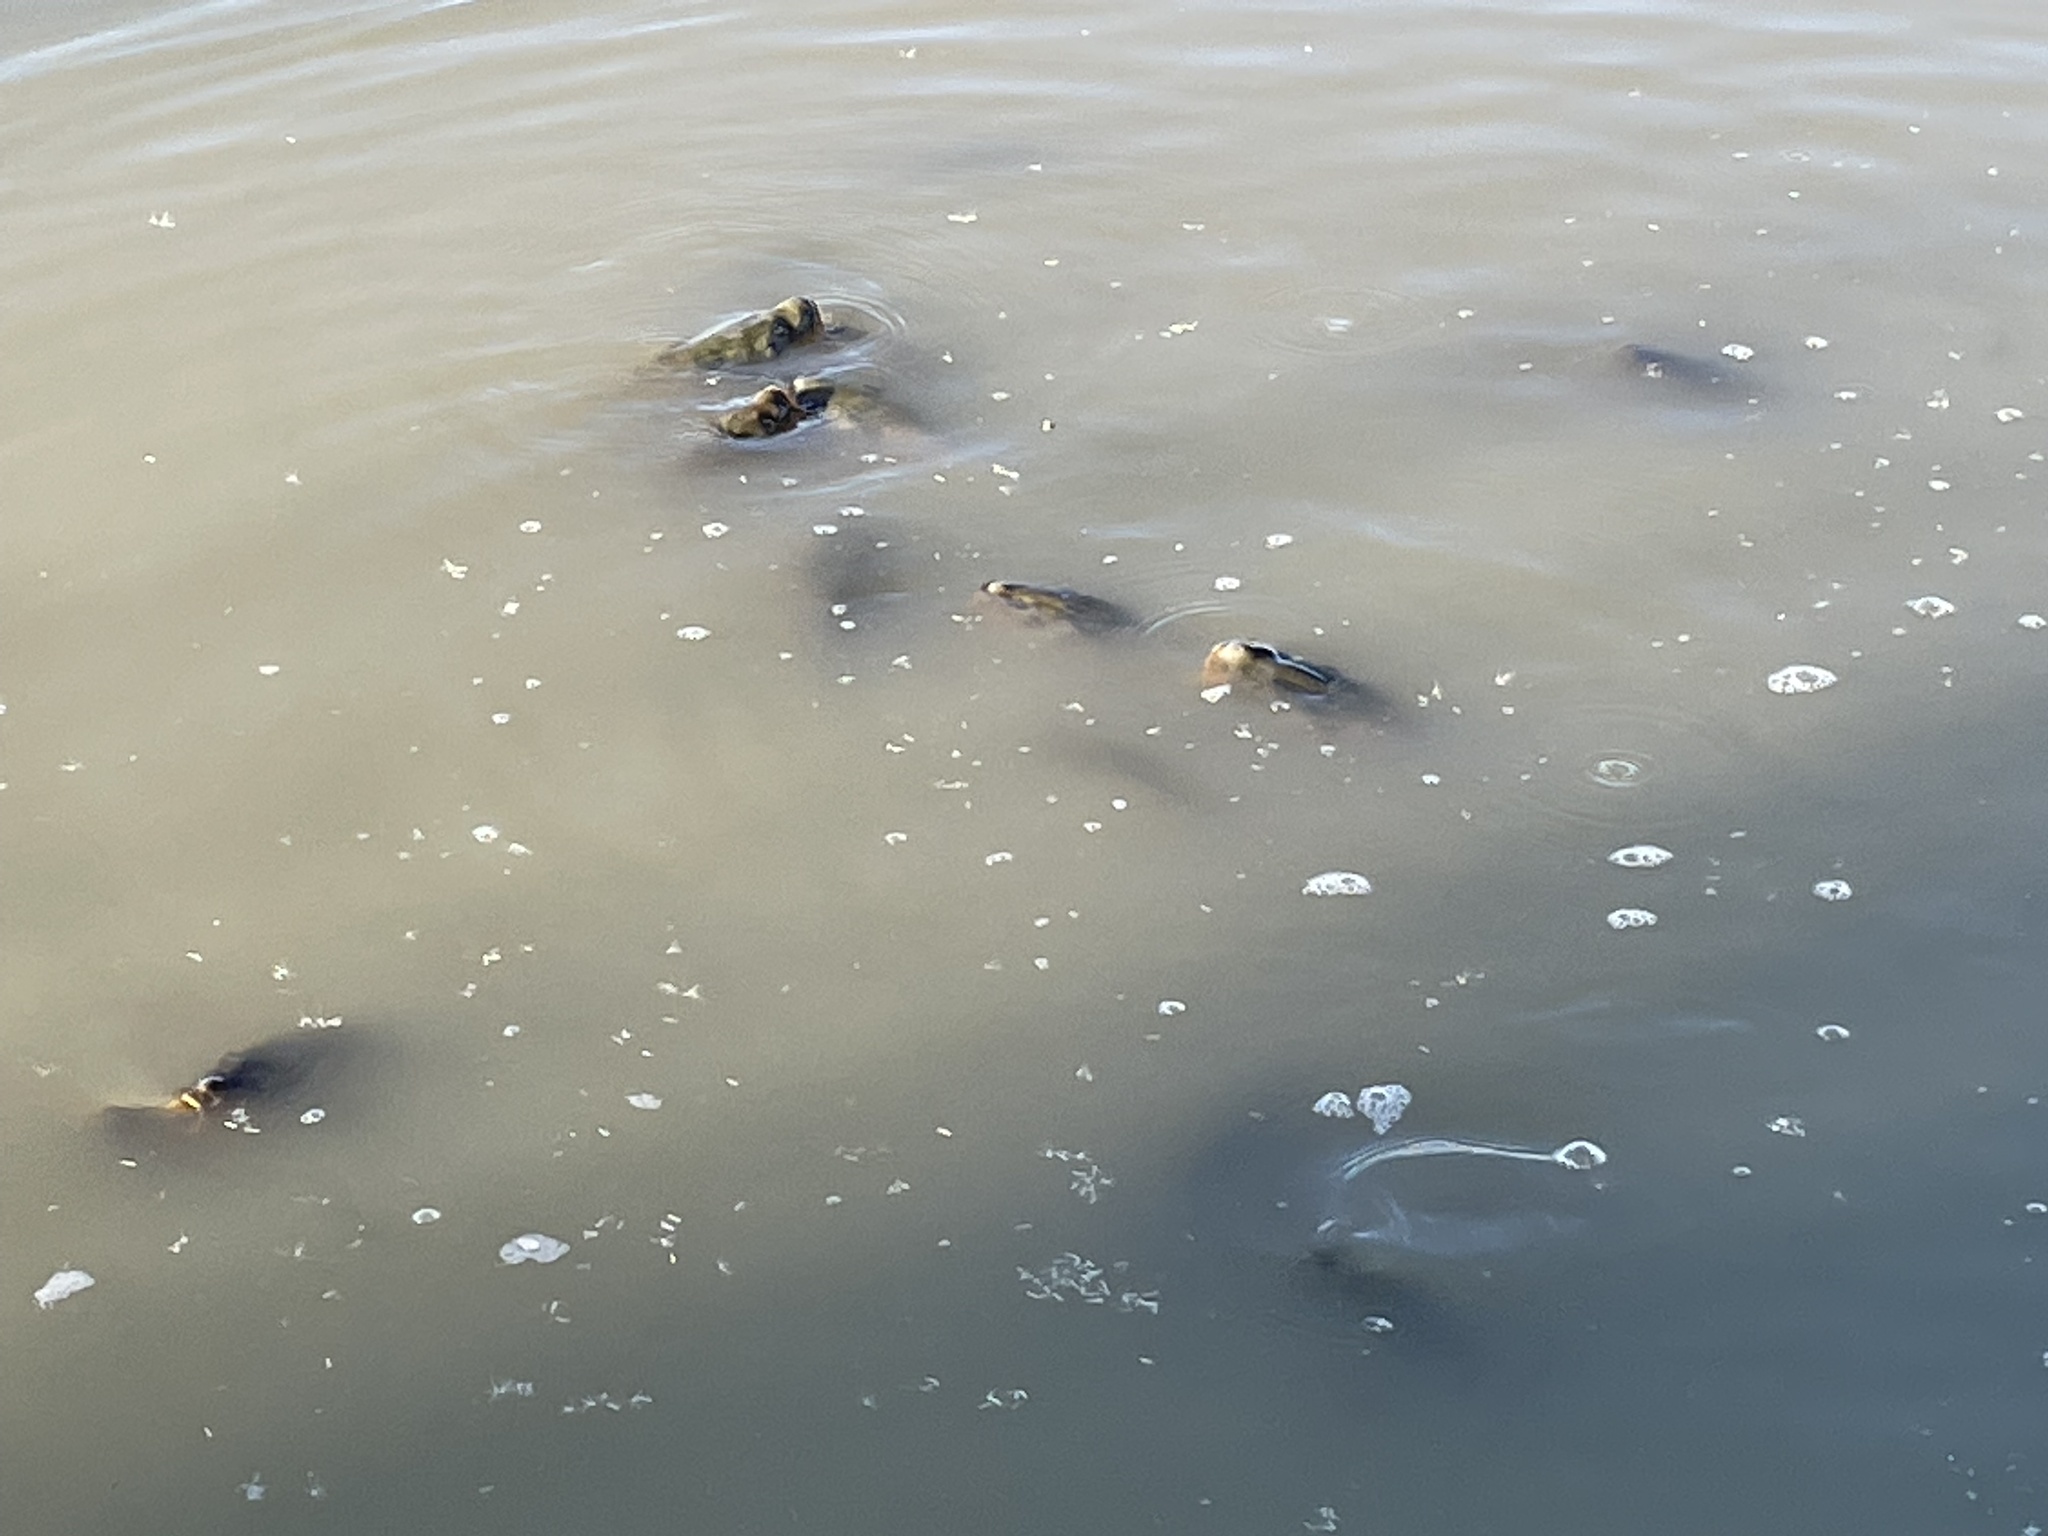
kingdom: Animalia
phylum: Chordata
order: Cypriniformes
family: Cyprinidae
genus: Cyprinus
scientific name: Cyprinus carpio
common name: Common carp
